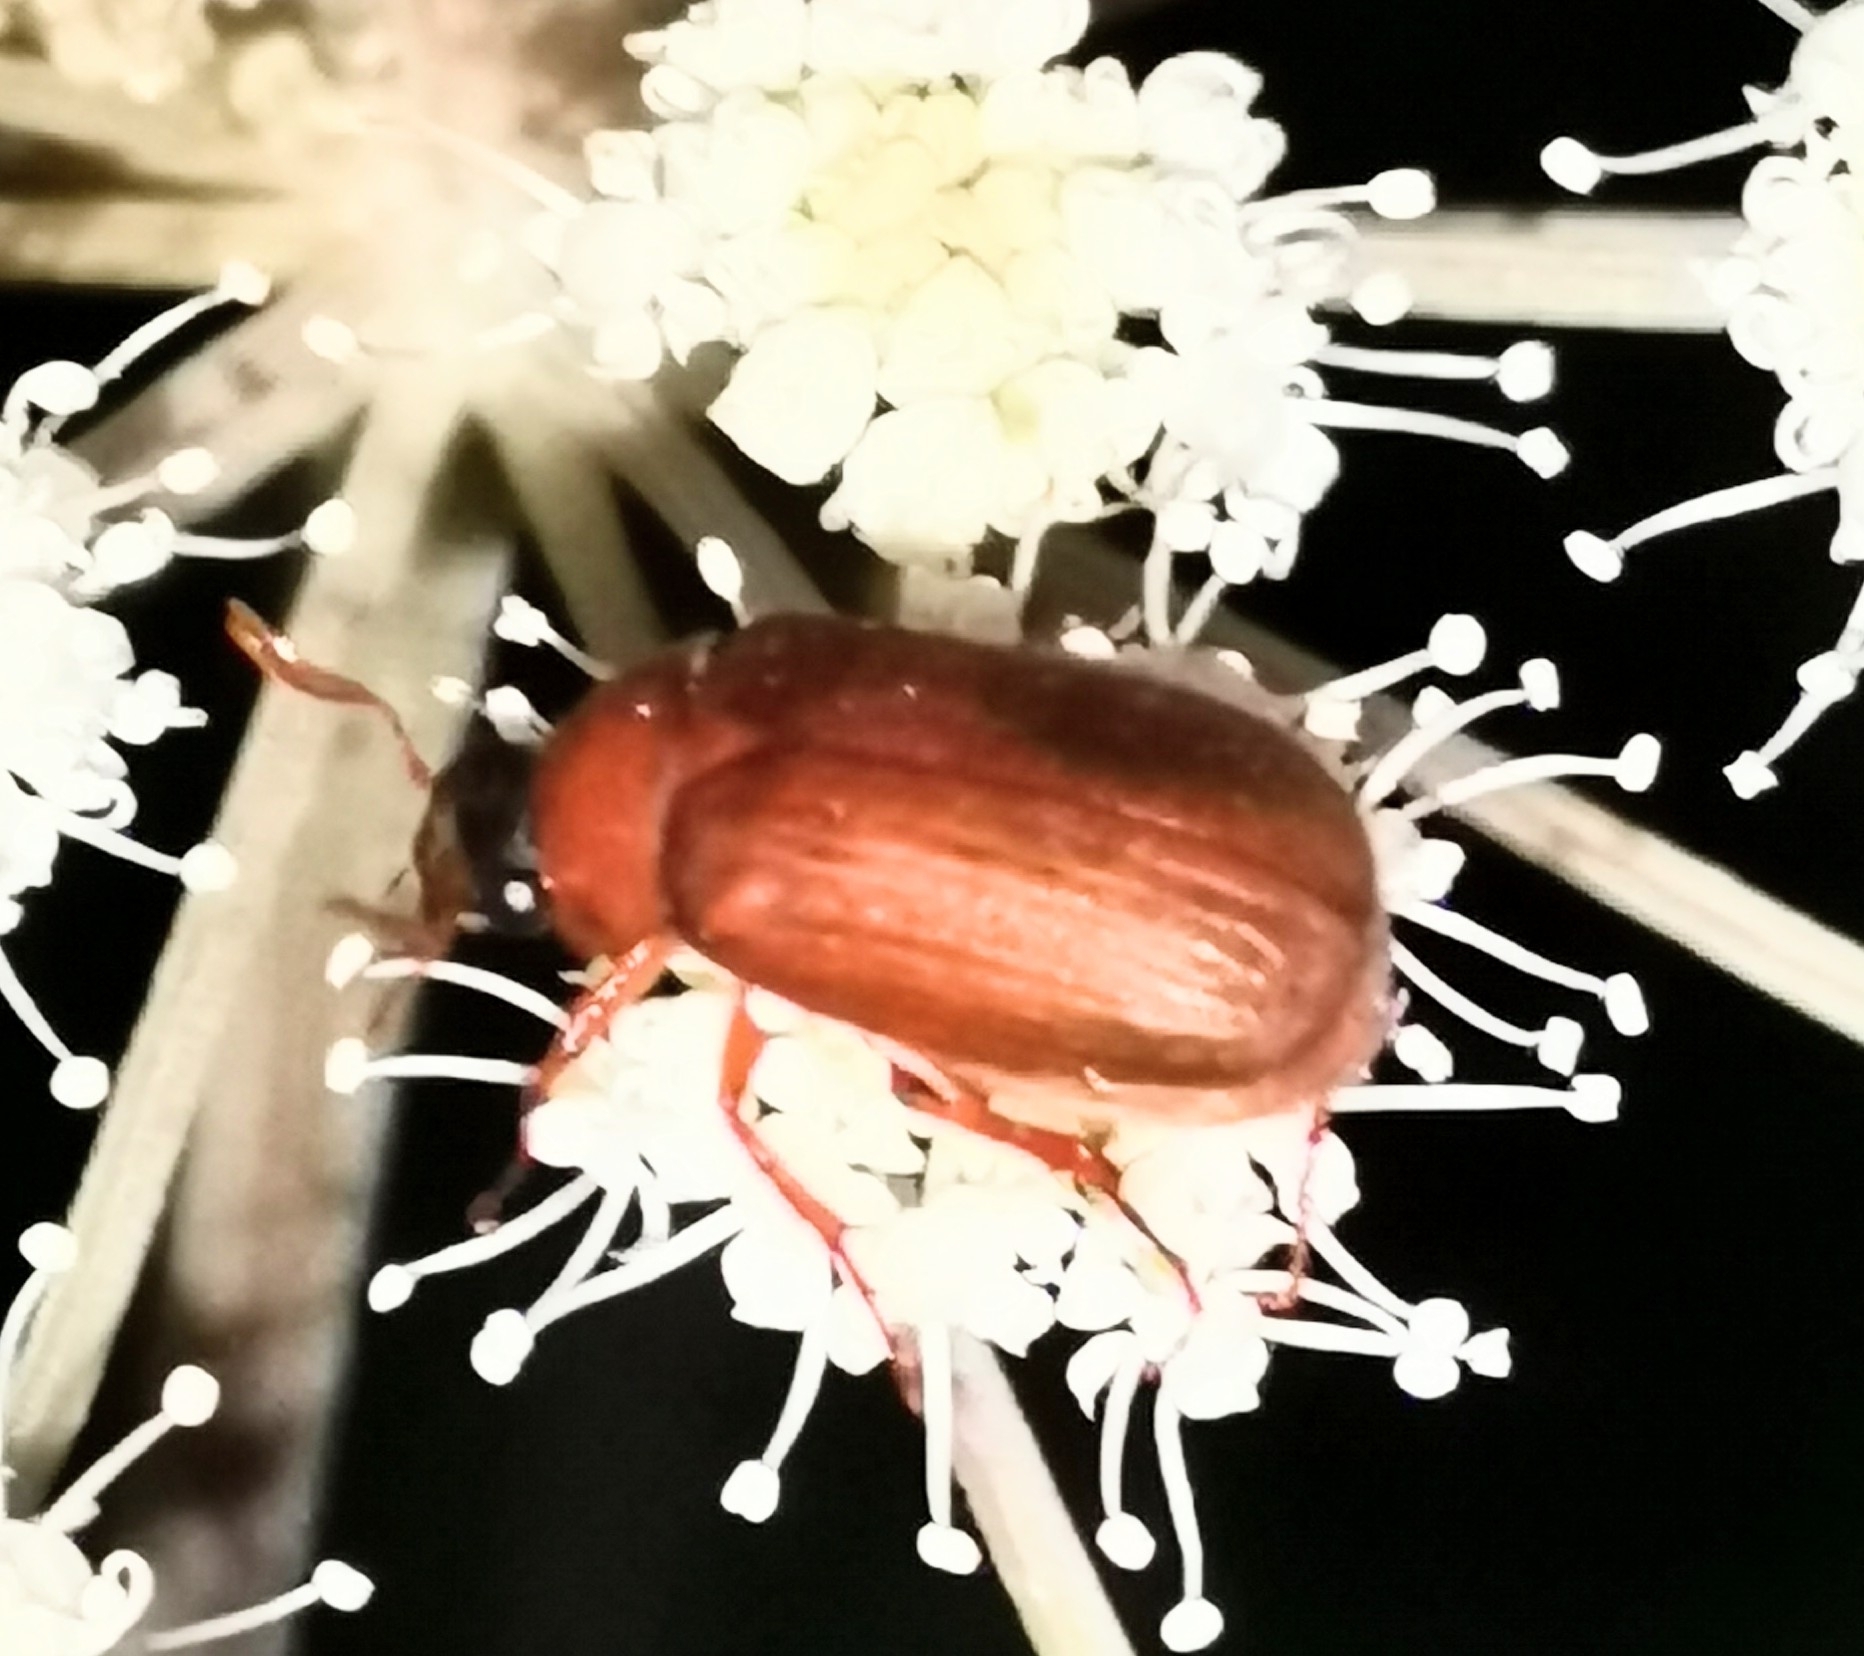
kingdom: Animalia
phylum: Arthropoda
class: Insecta
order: Coleoptera
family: Scarabaeidae
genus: Serica
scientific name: Serica brunnea
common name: Brown chafer
